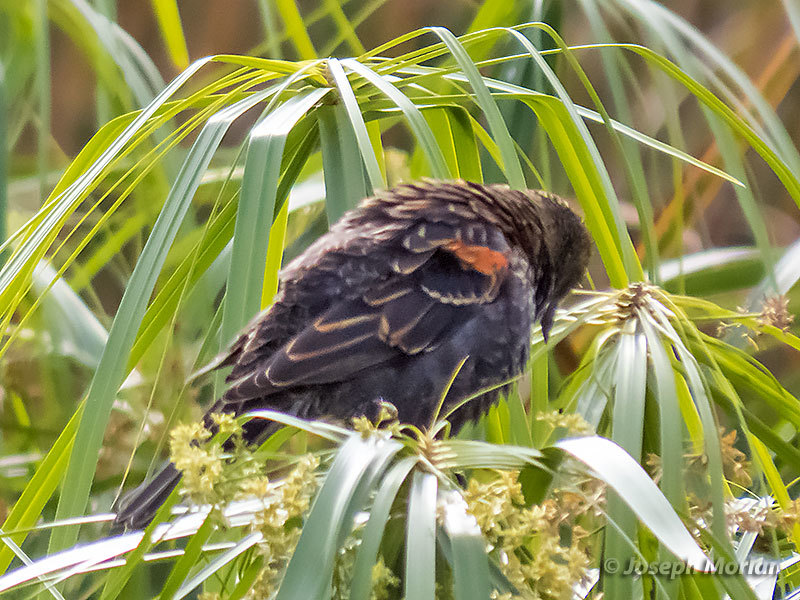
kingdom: Animalia
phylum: Chordata
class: Aves
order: Passeriformes
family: Icteridae
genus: Agelaius
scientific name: Agelaius phoeniceus
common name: Red-winged blackbird
